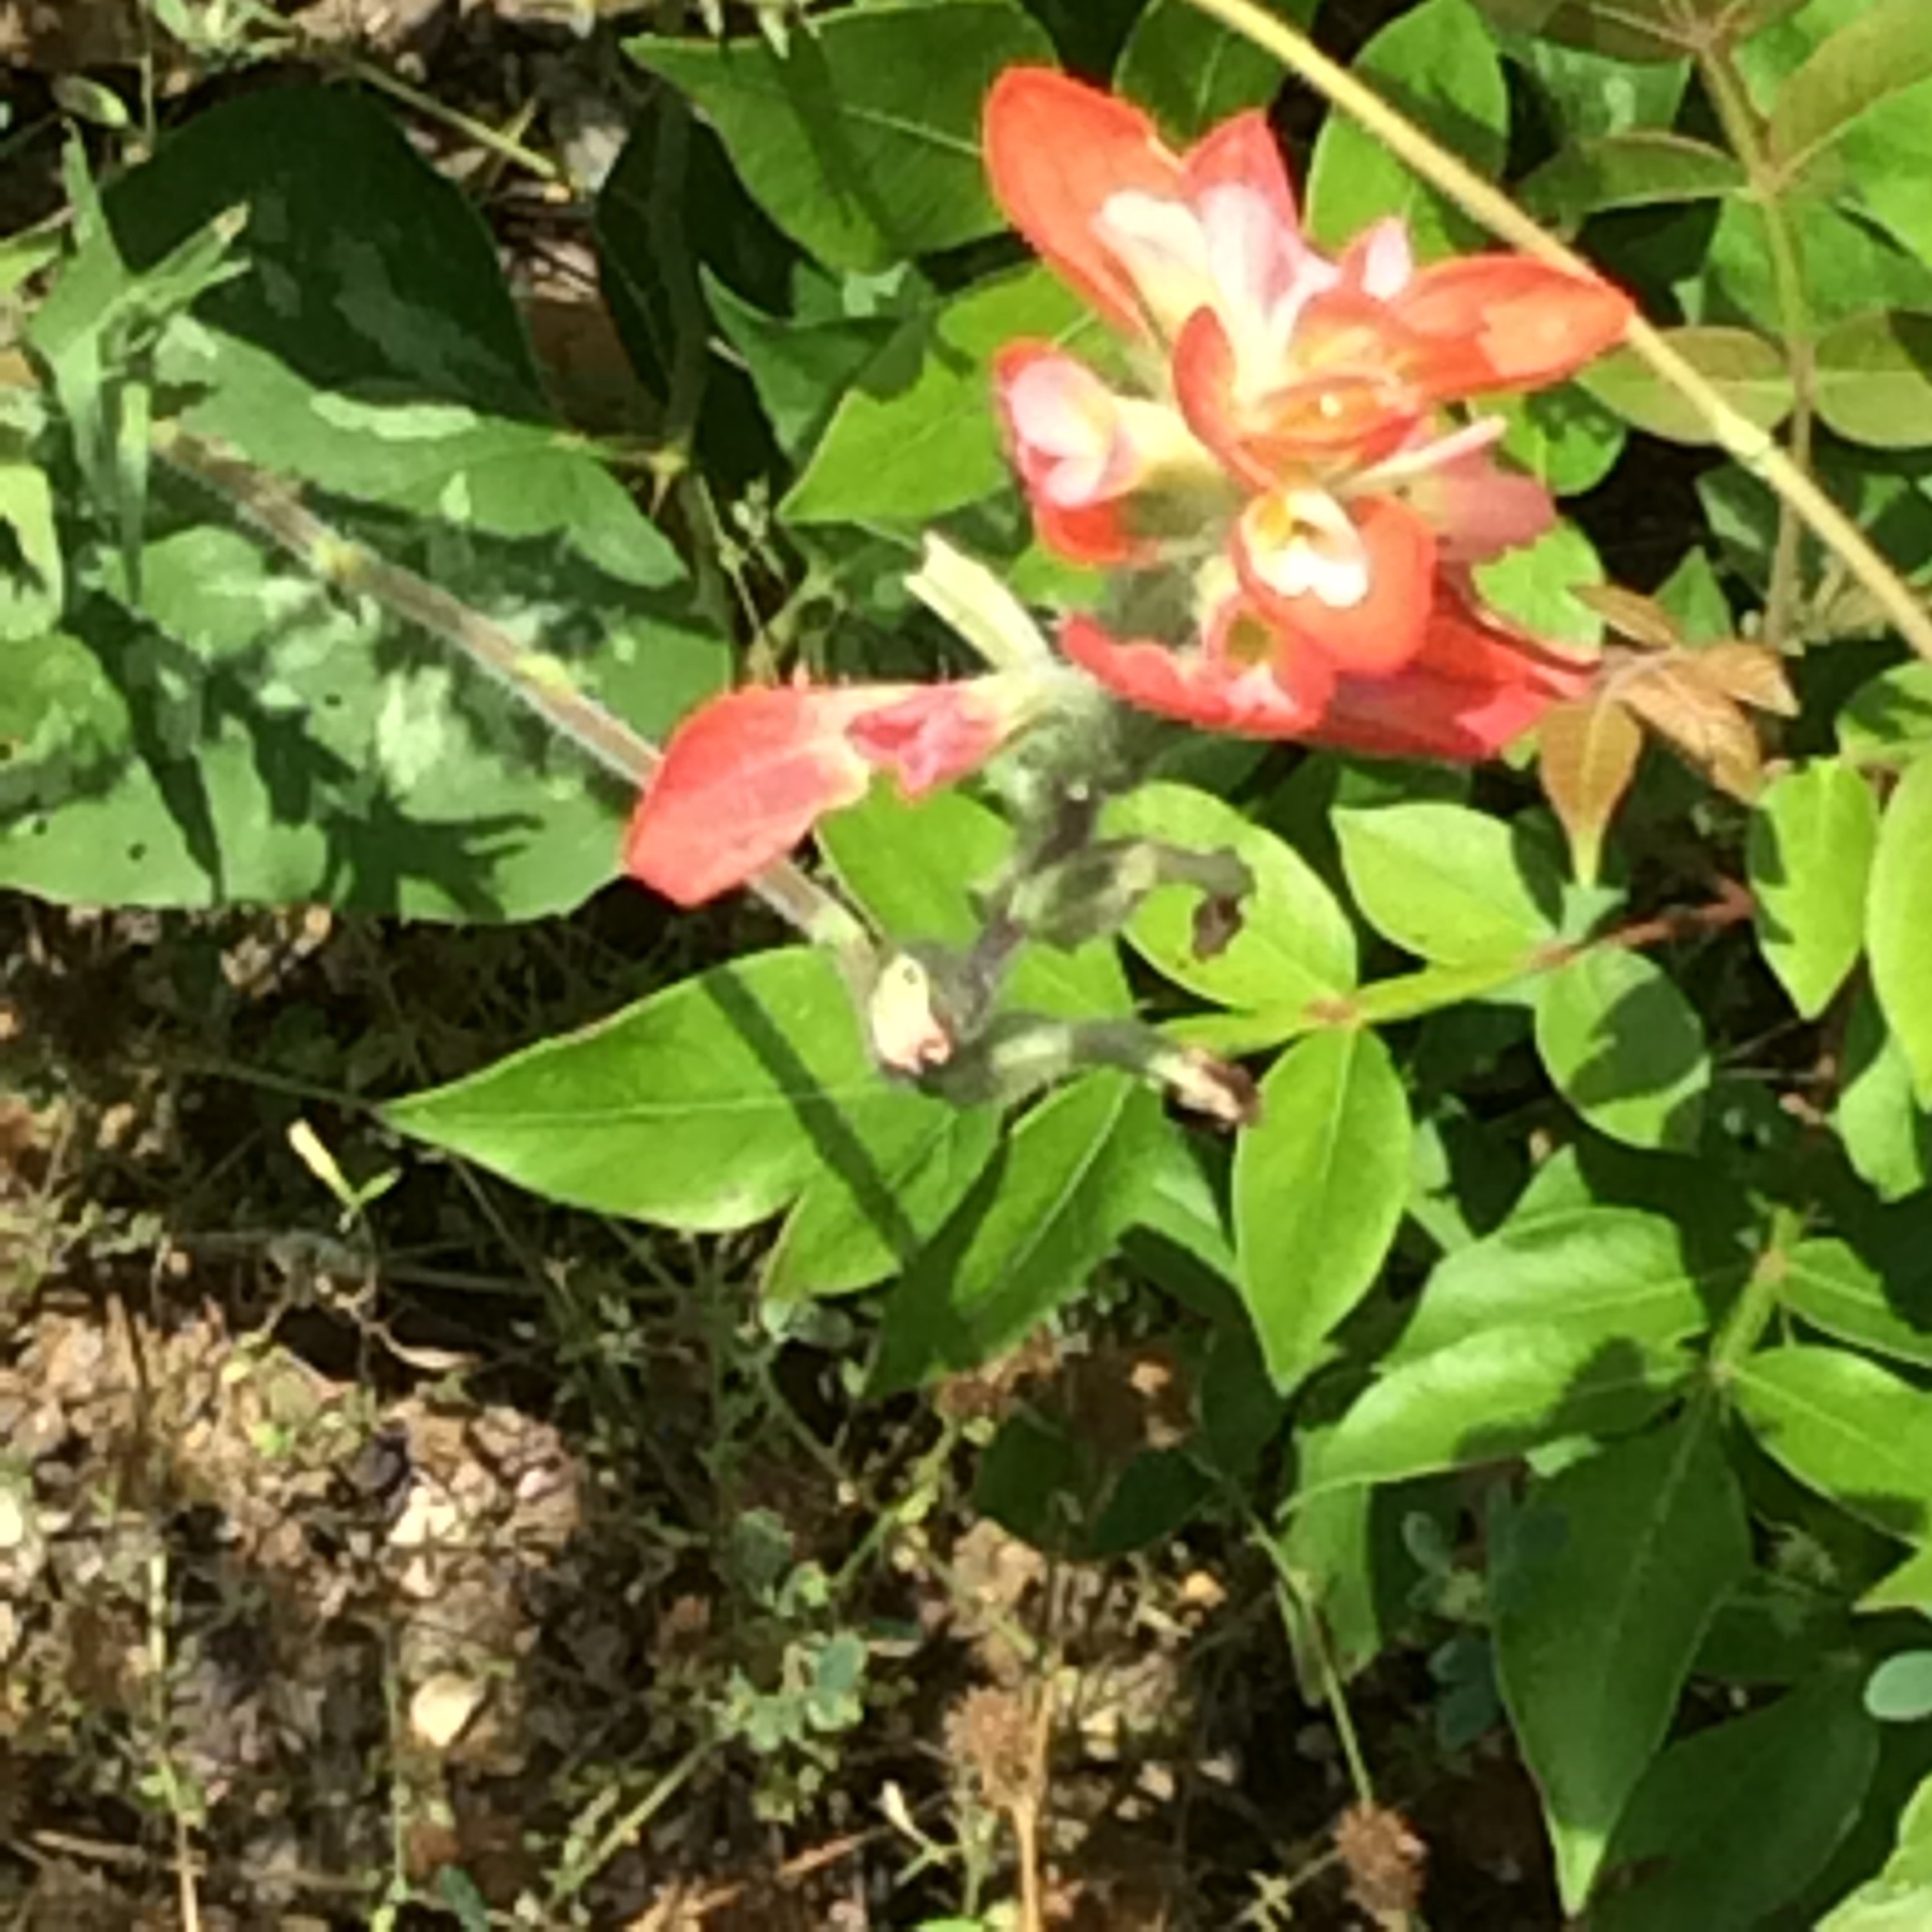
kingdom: Plantae
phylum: Tracheophyta
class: Magnoliopsida
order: Lamiales
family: Orobanchaceae
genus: Castilleja
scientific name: Castilleja indivisa
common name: Texas paintbrush
